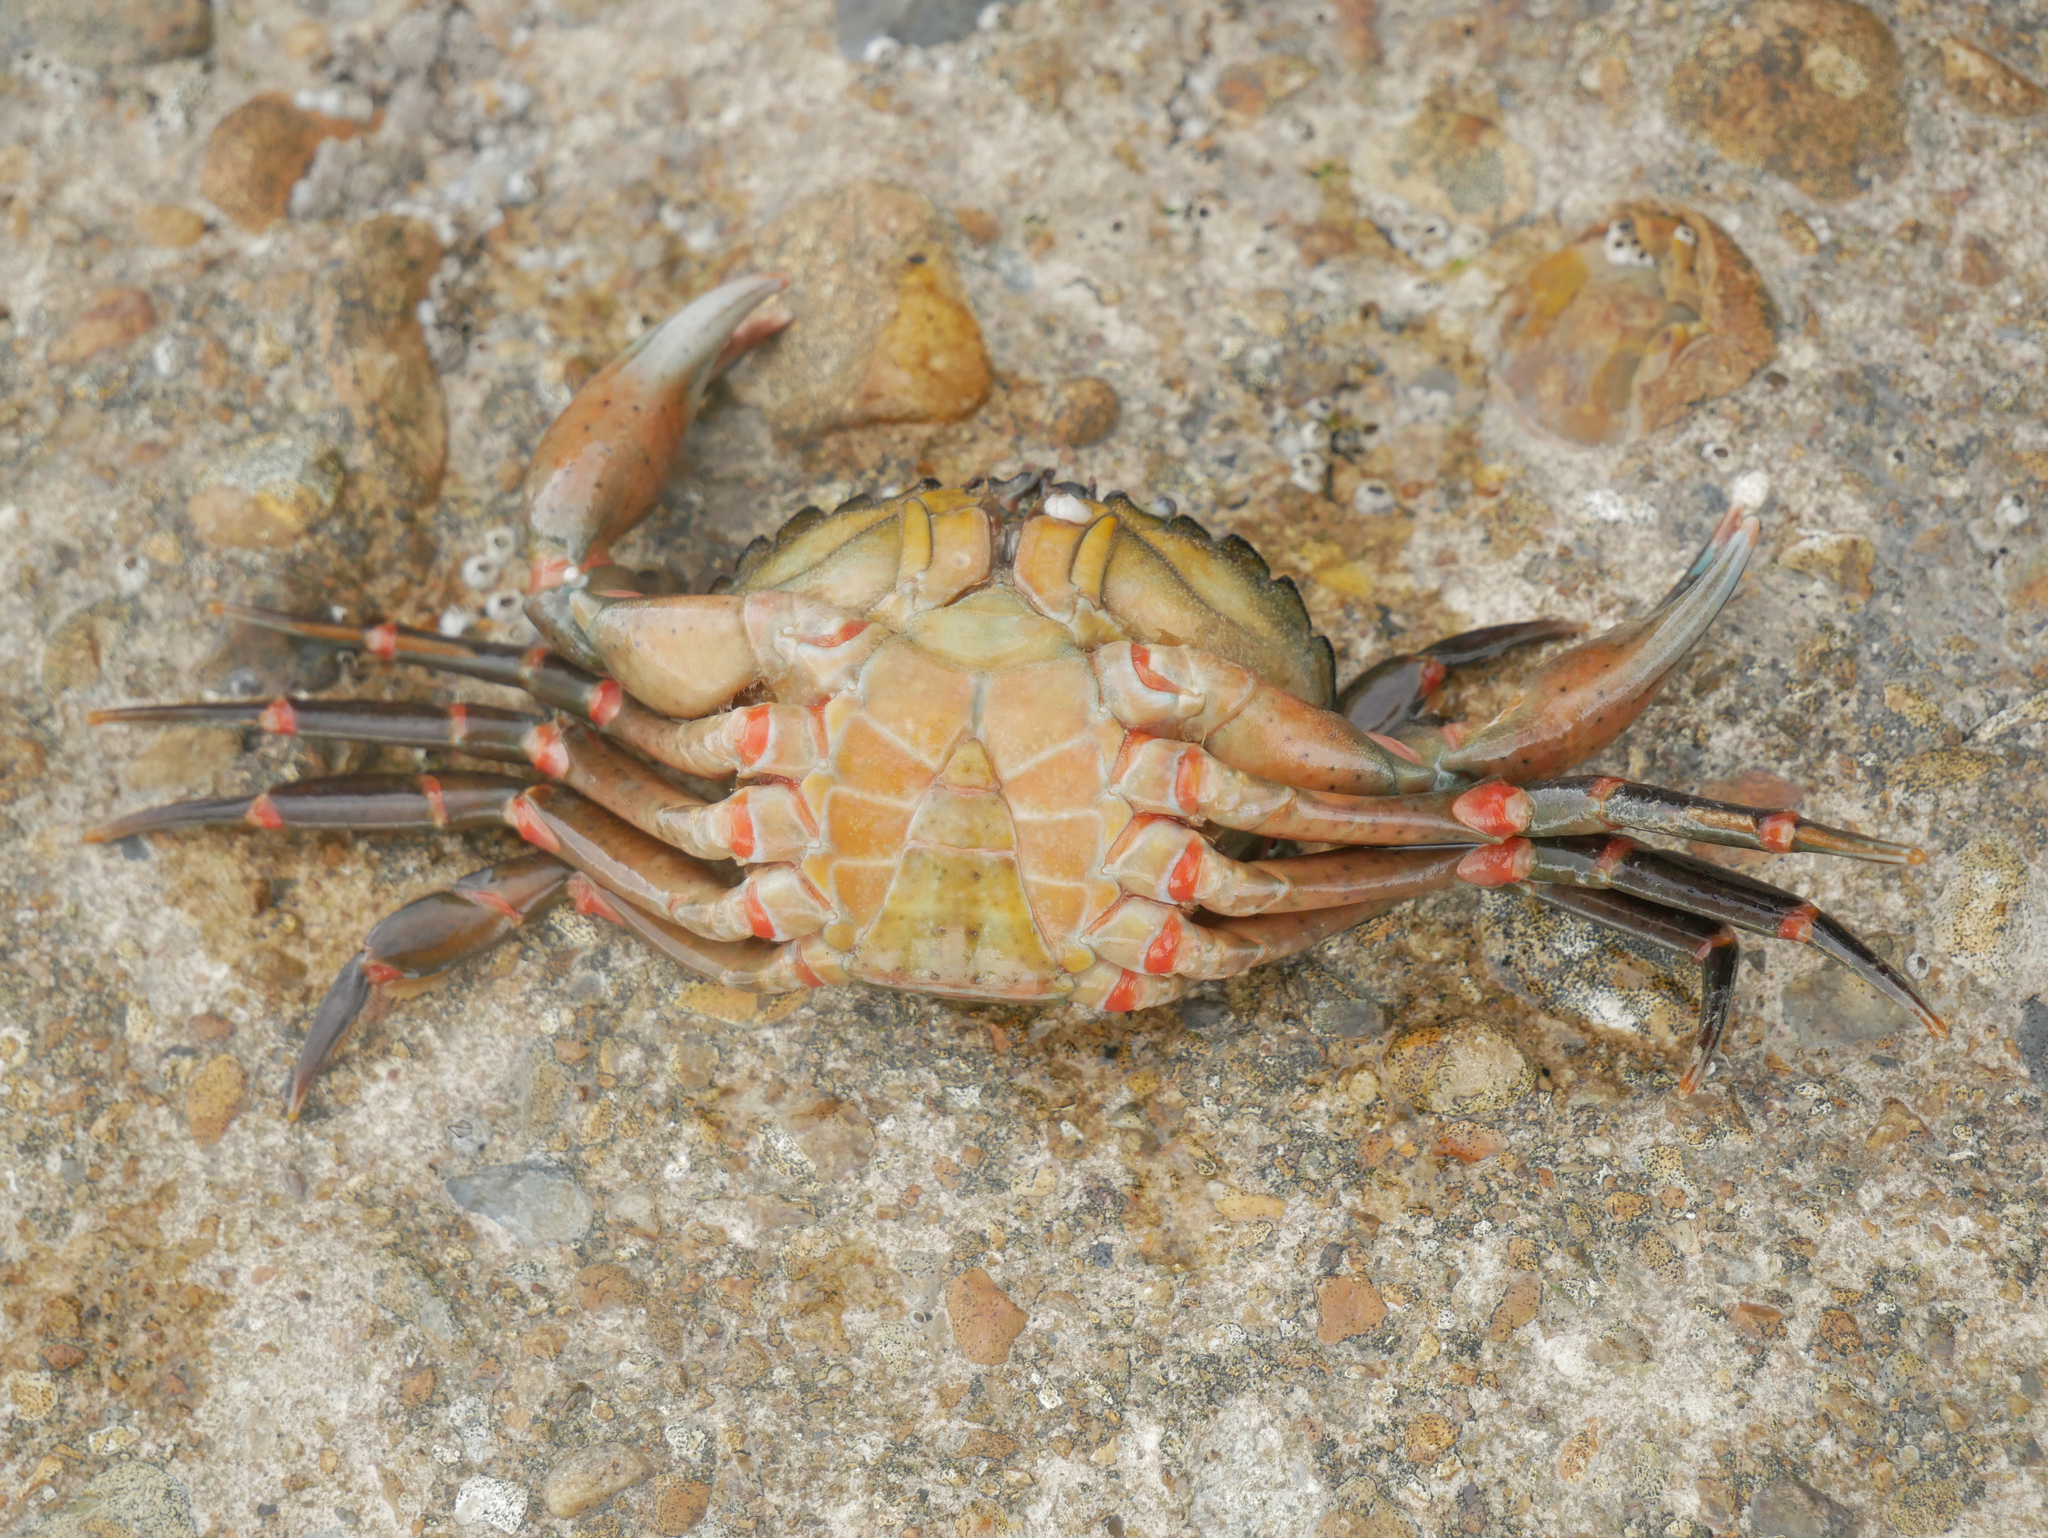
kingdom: Animalia
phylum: Arthropoda
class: Malacostraca
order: Decapoda
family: Carcinidae
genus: Carcinus
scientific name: Carcinus maenas
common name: European green crab
